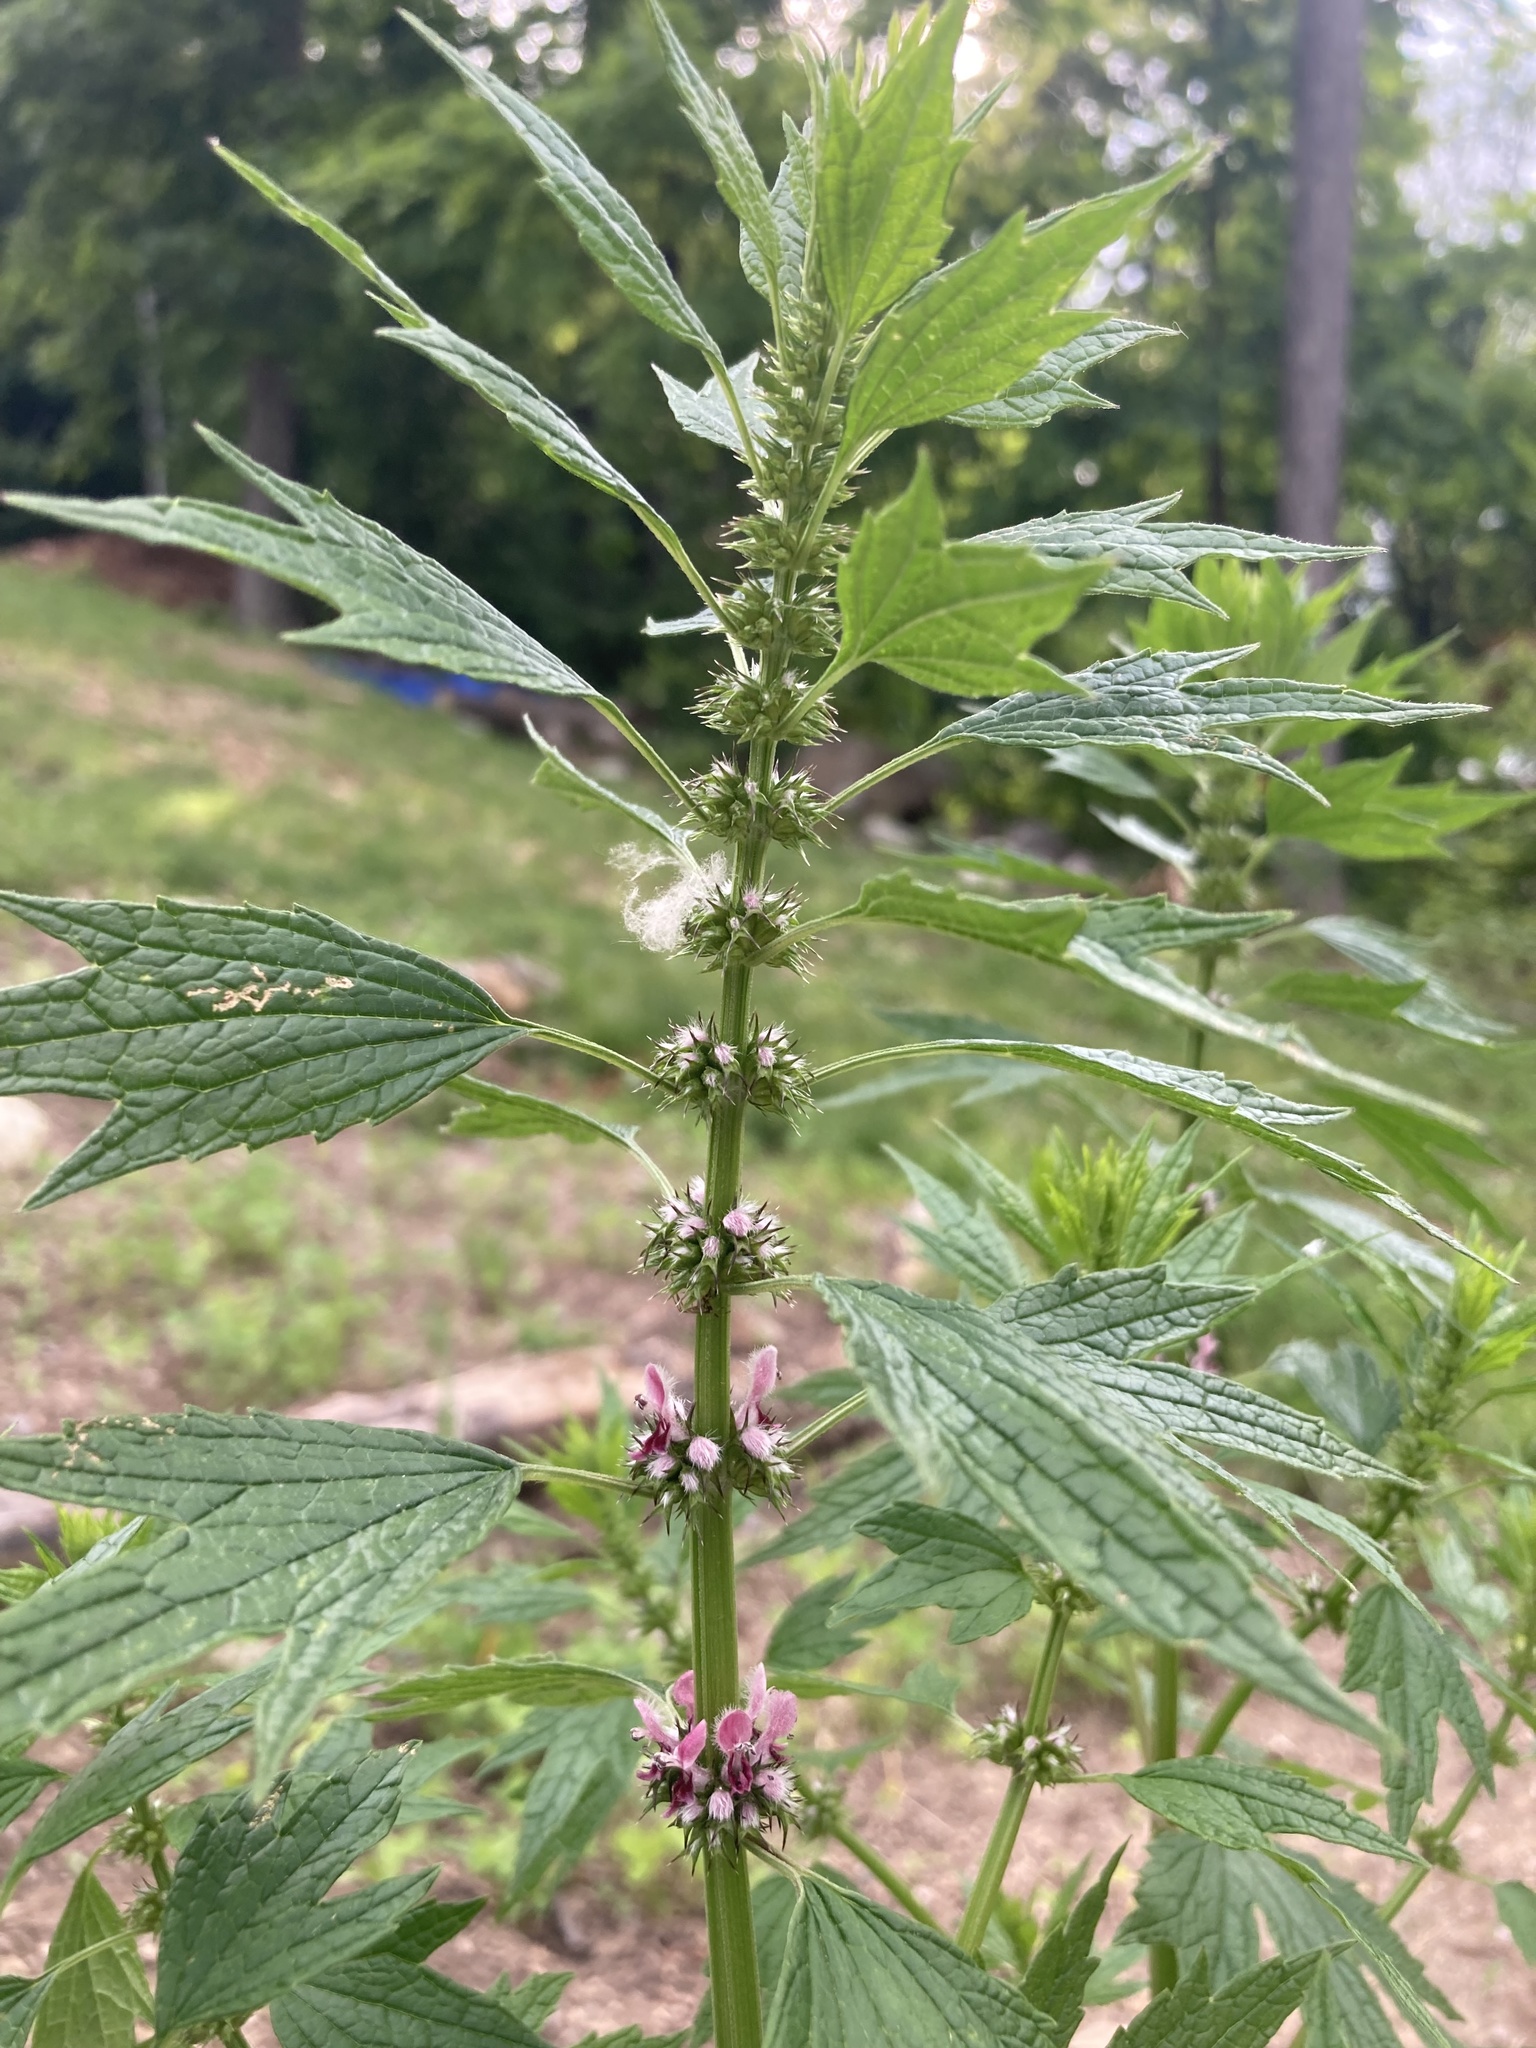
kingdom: Plantae
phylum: Tracheophyta
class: Magnoliopsida
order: Lamiales
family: Lamiaceae
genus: Leonurus
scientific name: Leonurus cardiaca
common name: Motherwort
